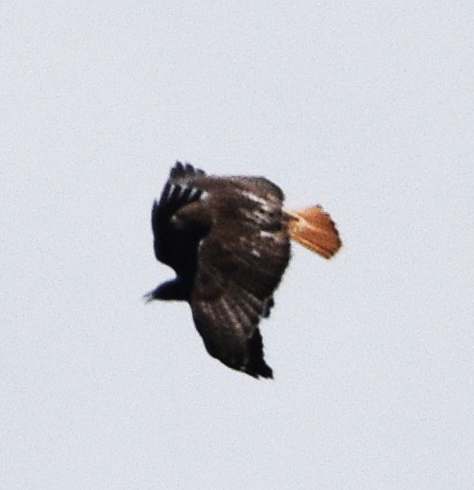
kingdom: Animalia
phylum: Chordata
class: Aves
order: Accipitriformes
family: Accipitridae
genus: Buteo
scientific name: Buteo jamaicensis
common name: Red-tailed hawk
